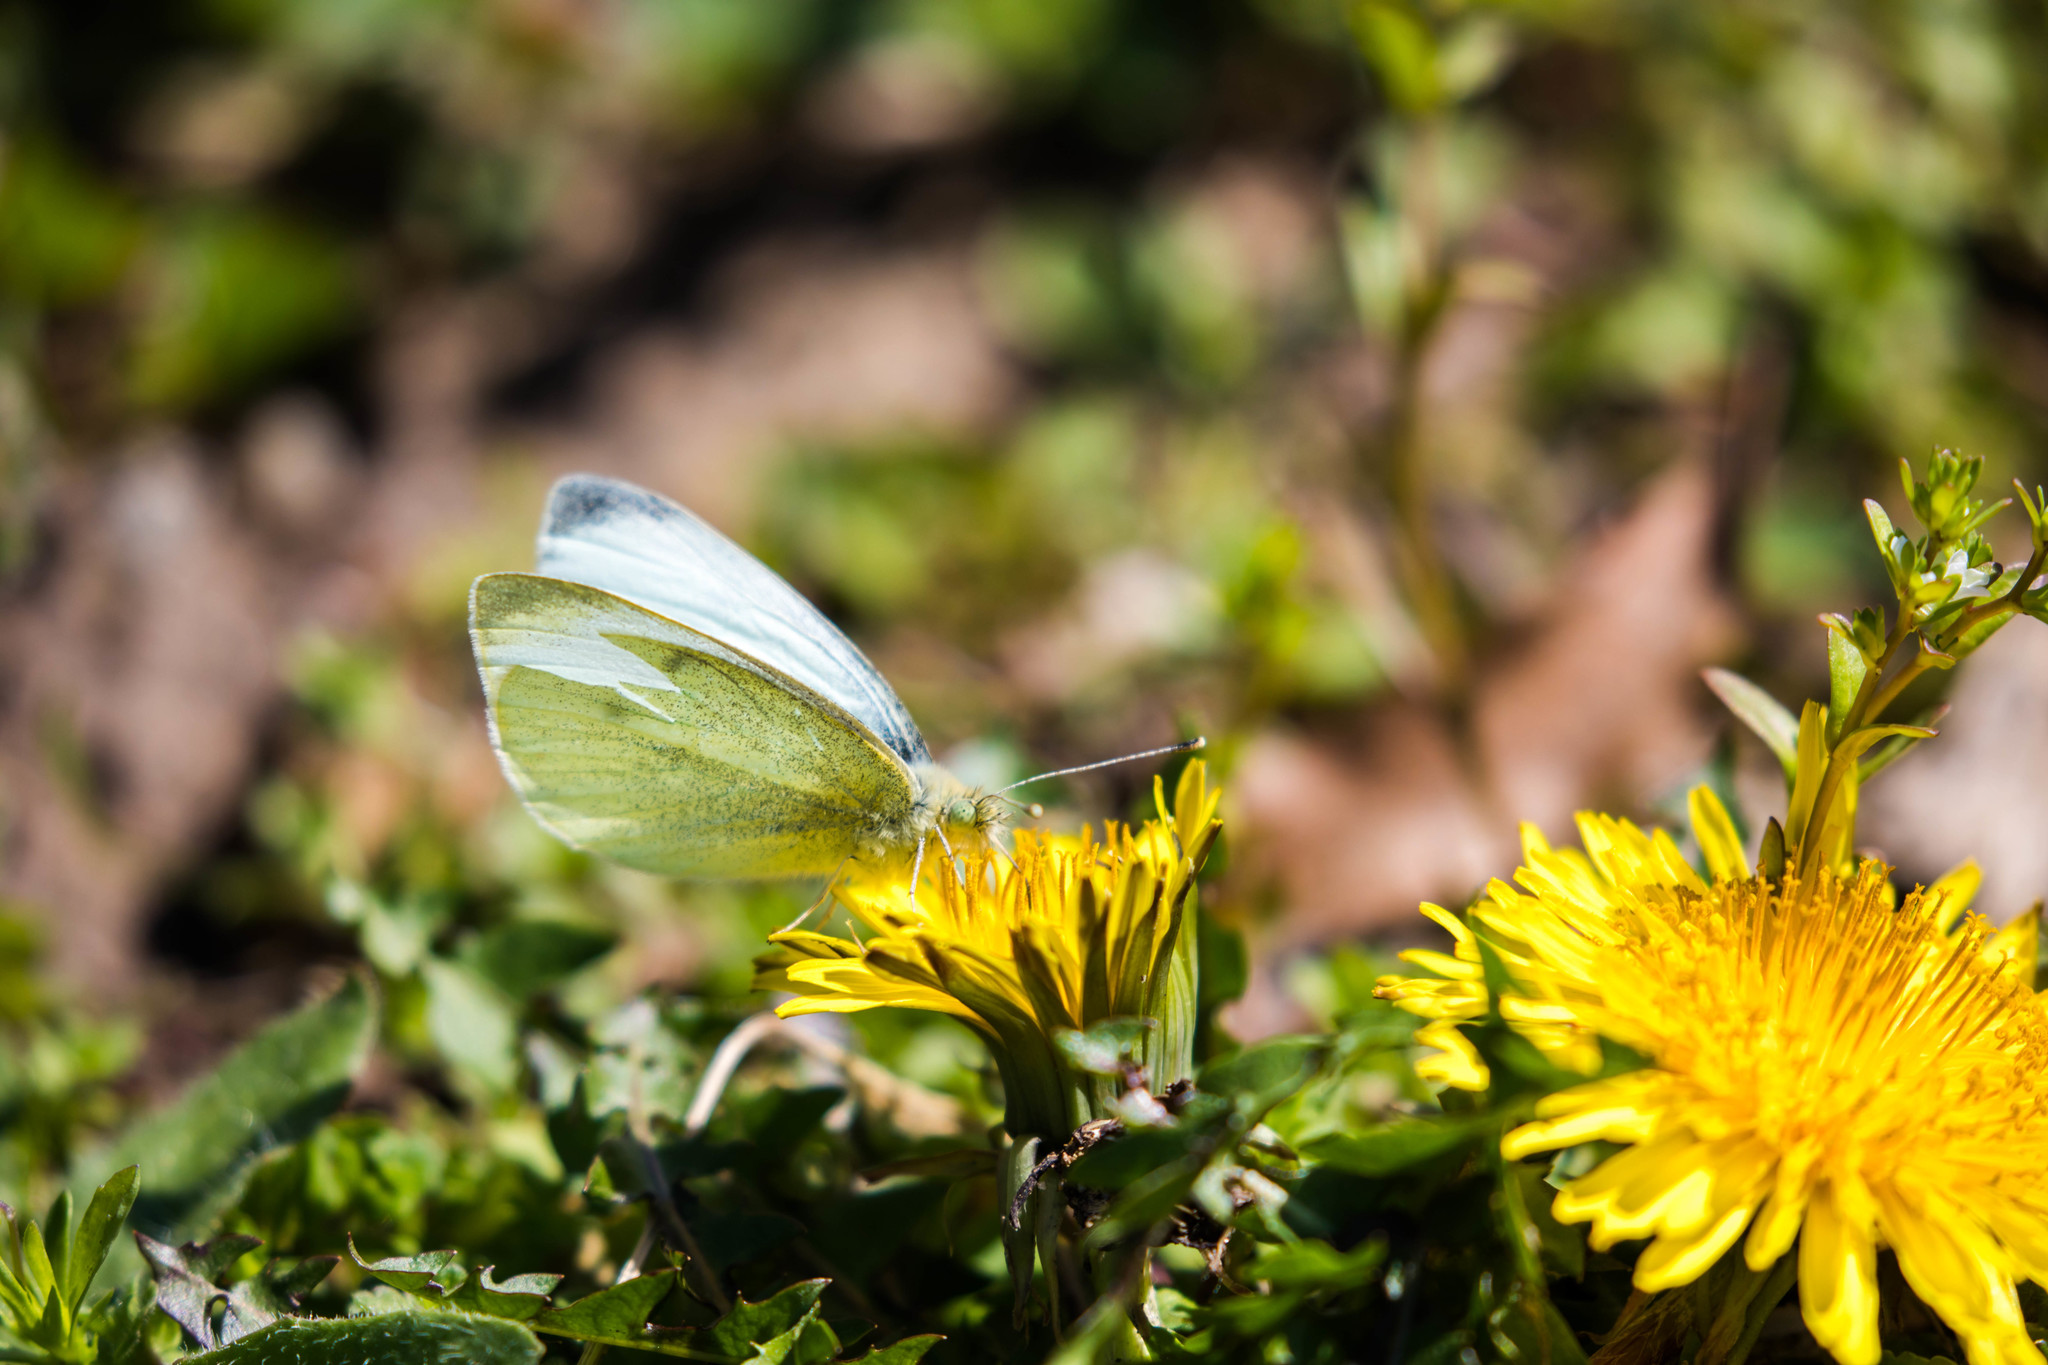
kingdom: Animalia
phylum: Arthropoda
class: Insecta
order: Lepidoptera
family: Pieridae
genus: Pieris
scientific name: Pieris rapae
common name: Small white
